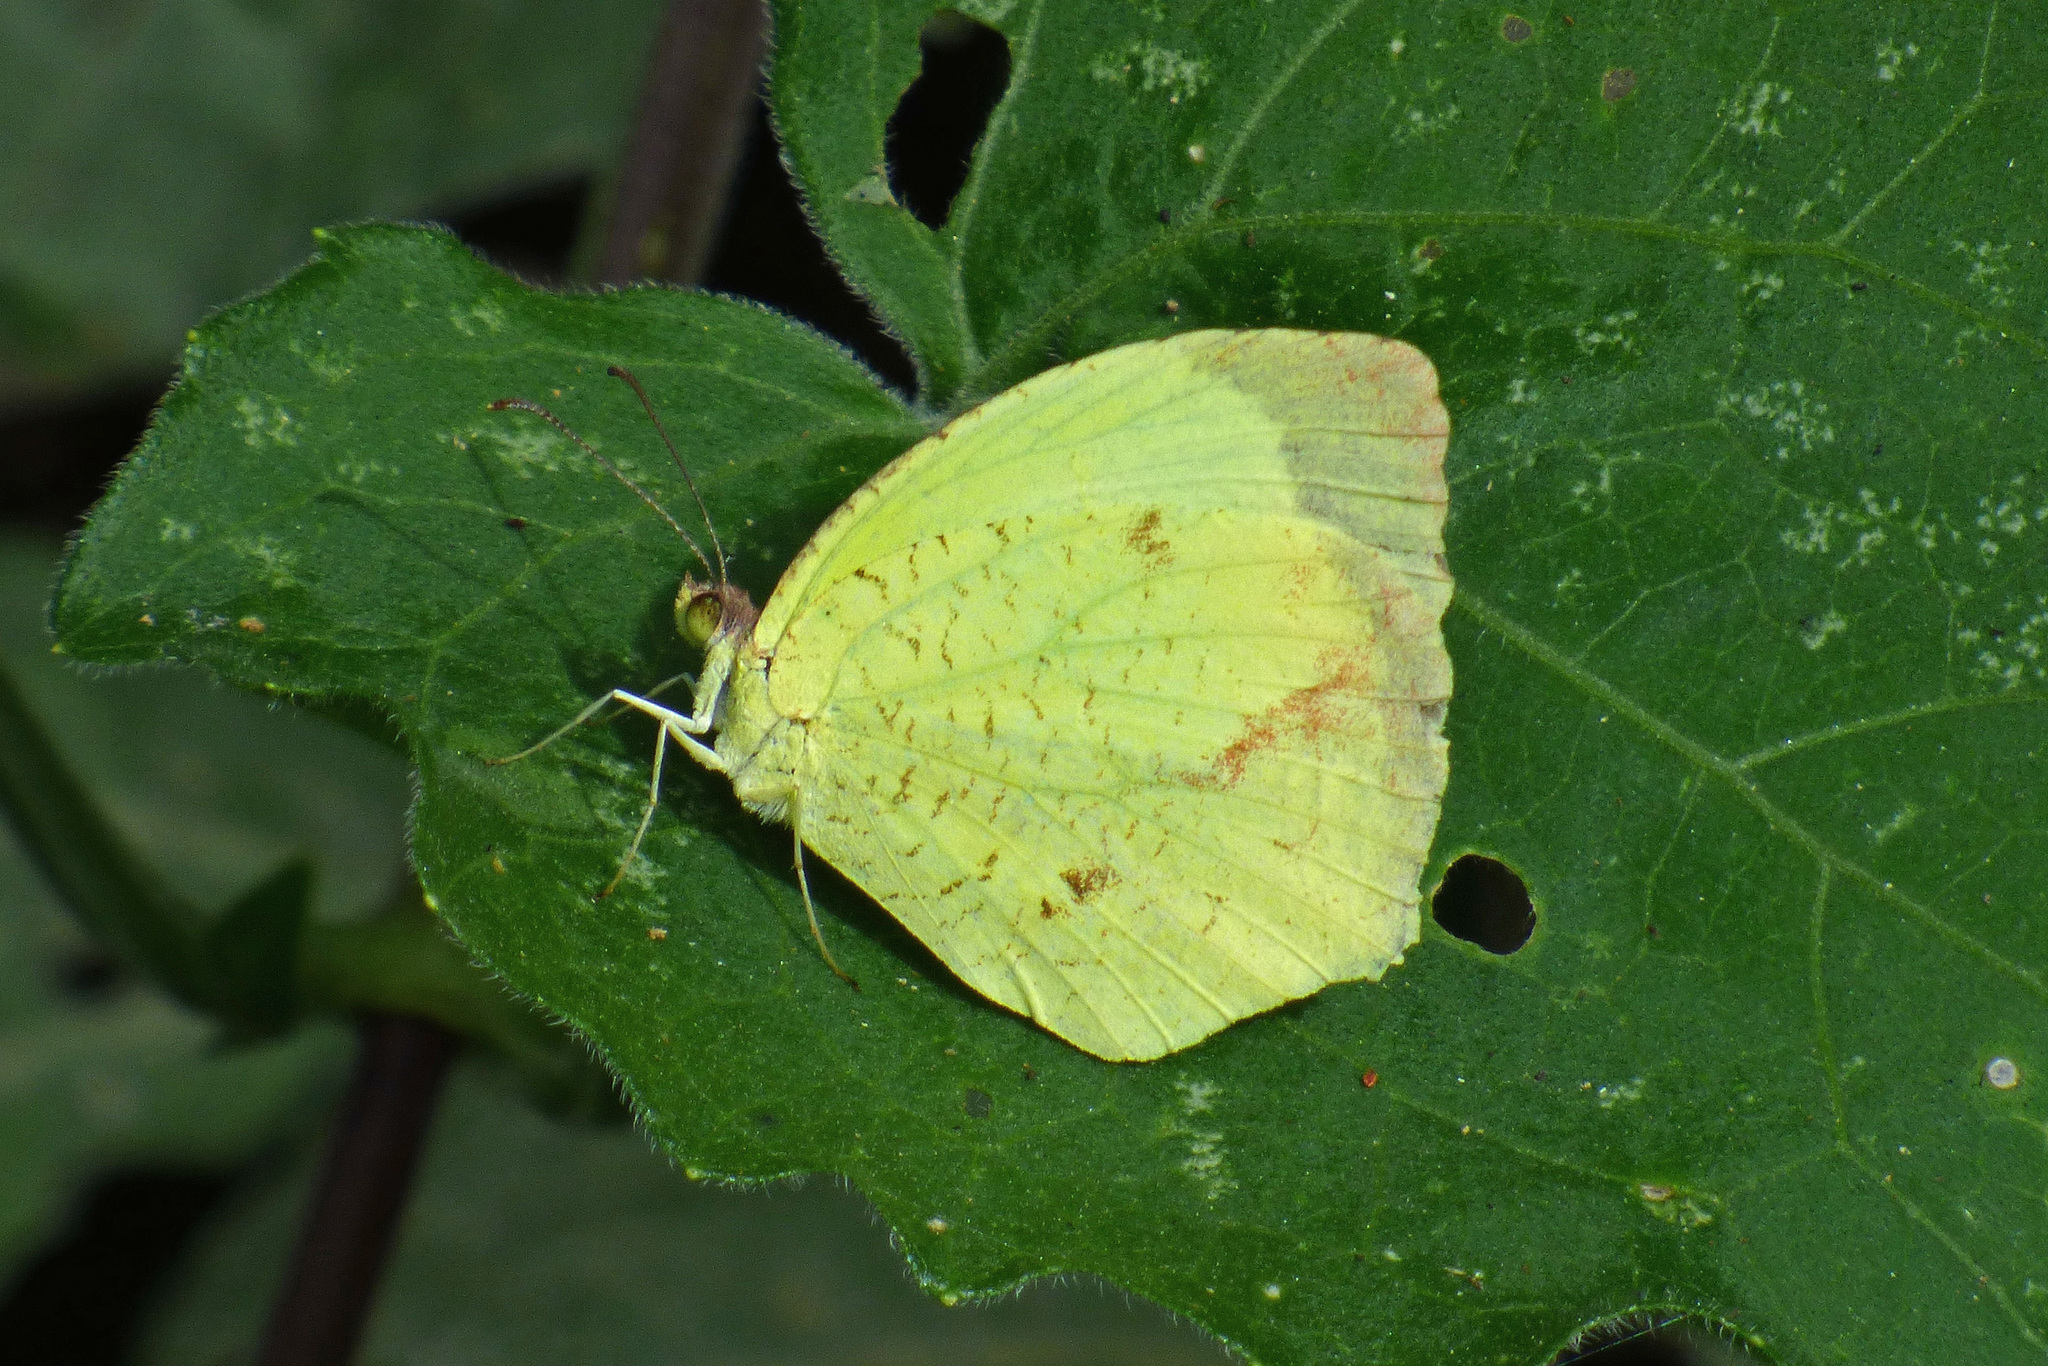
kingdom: Animalia
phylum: Arthropoda
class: Insecta
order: Lepidoptera
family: Pieridae
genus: Abaeis
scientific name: Abaeis salome
